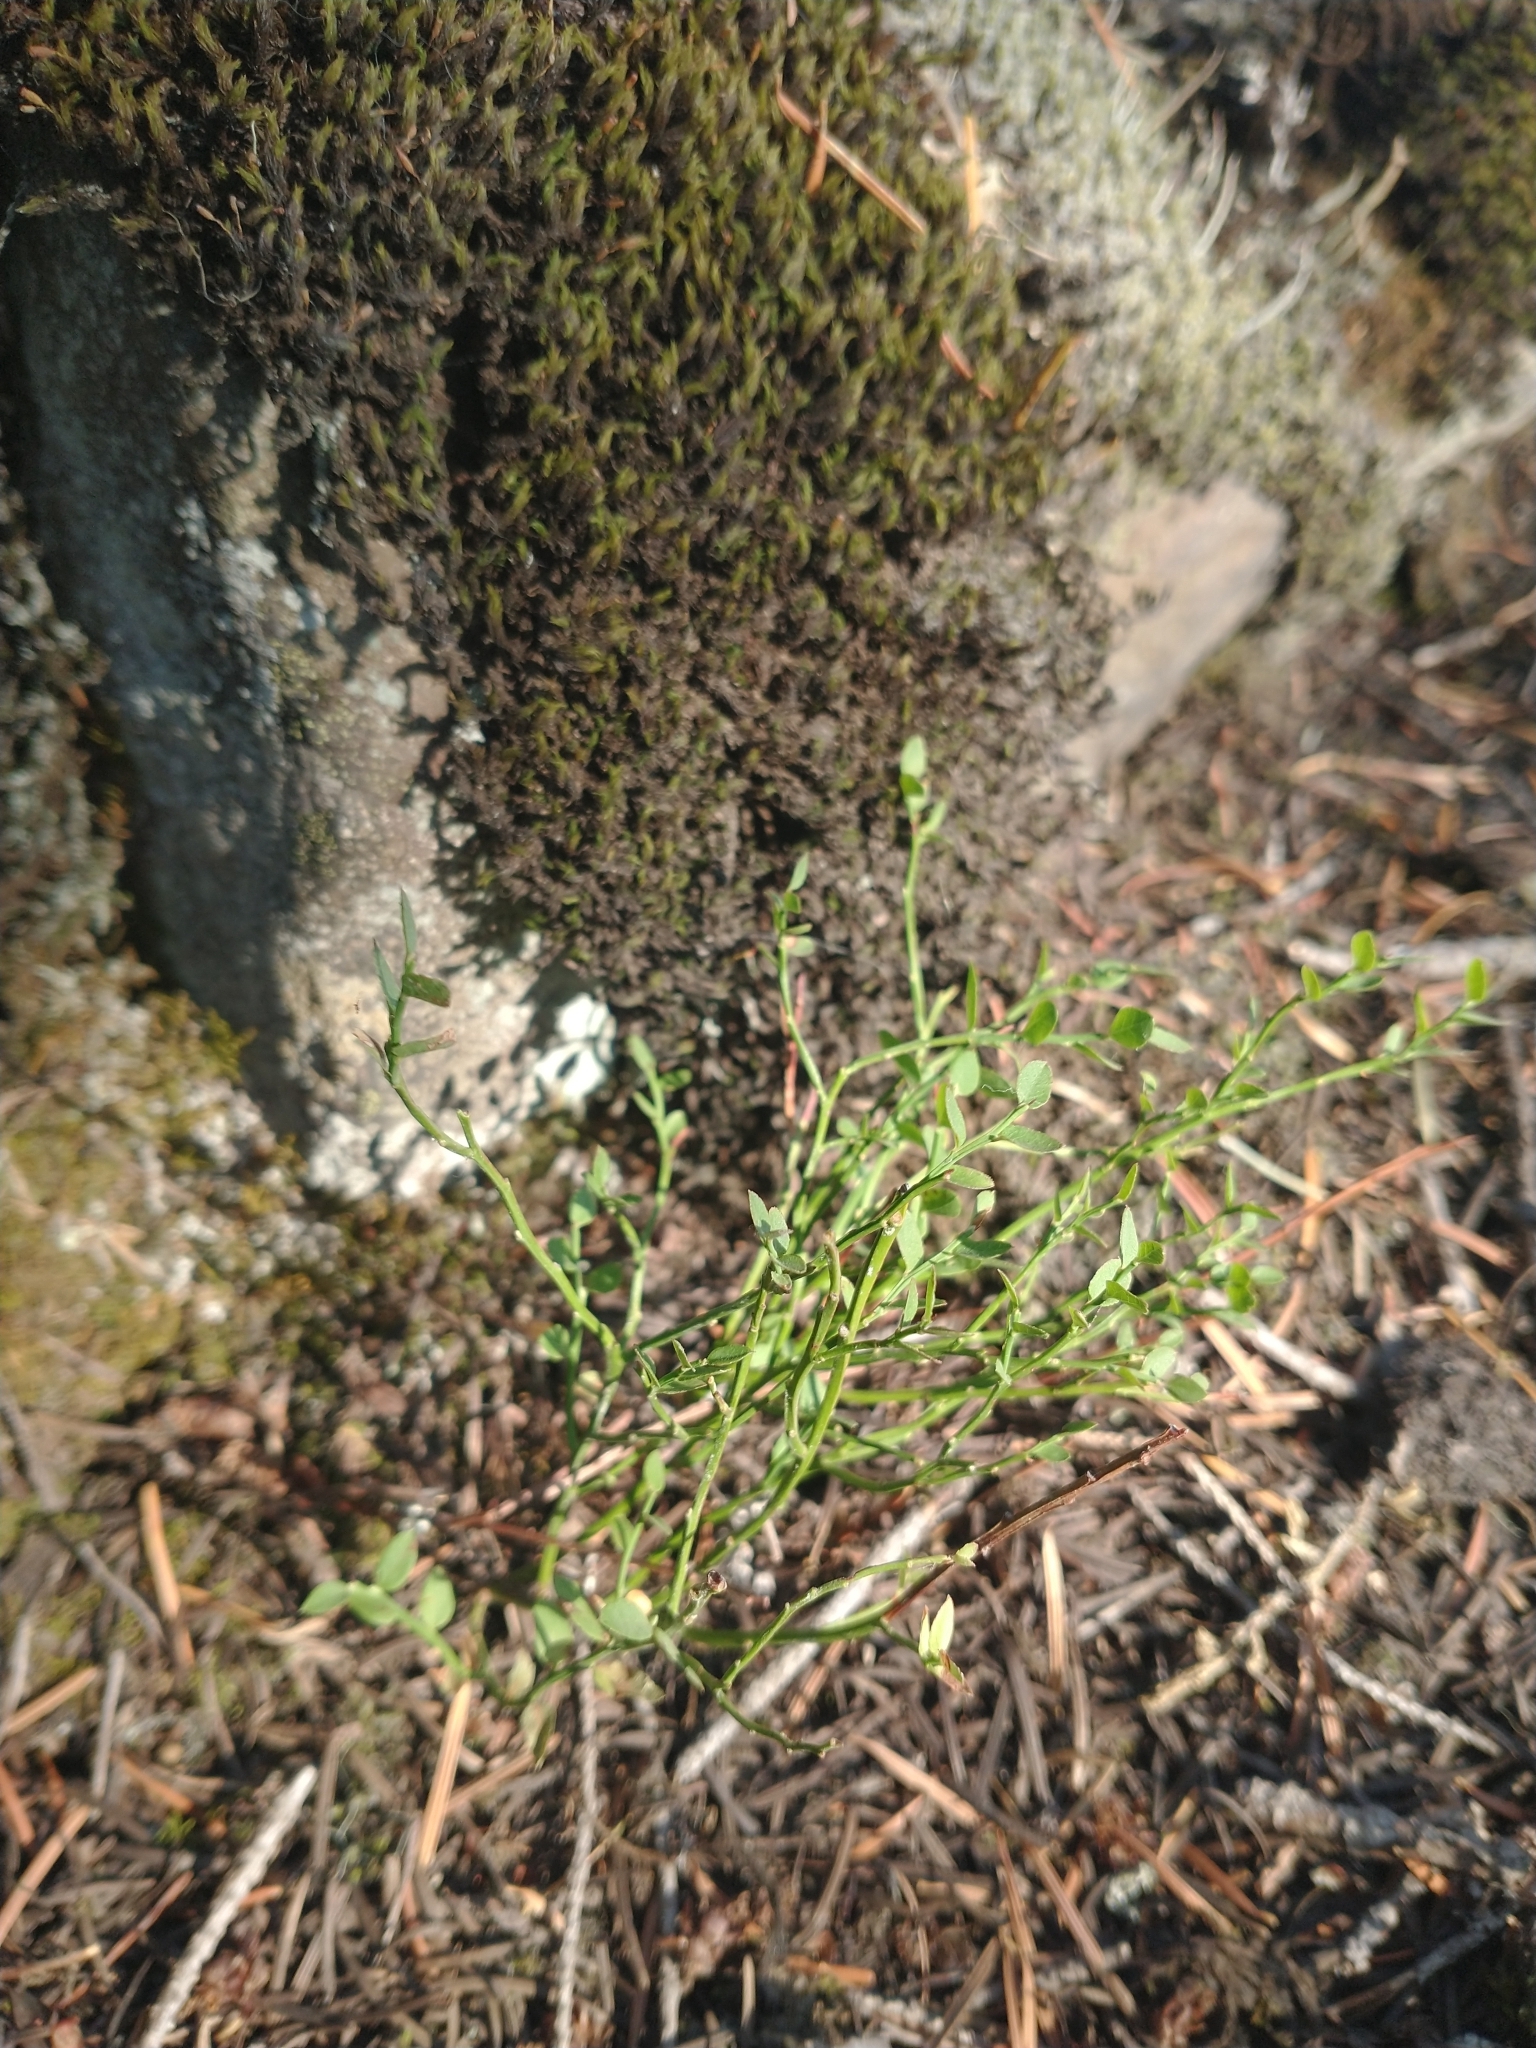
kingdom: Plantae
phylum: Tracheophyta
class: Magnoliopsida
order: Ericales
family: Ericaceae
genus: Vaccinium
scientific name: Vaccinium scoparium
